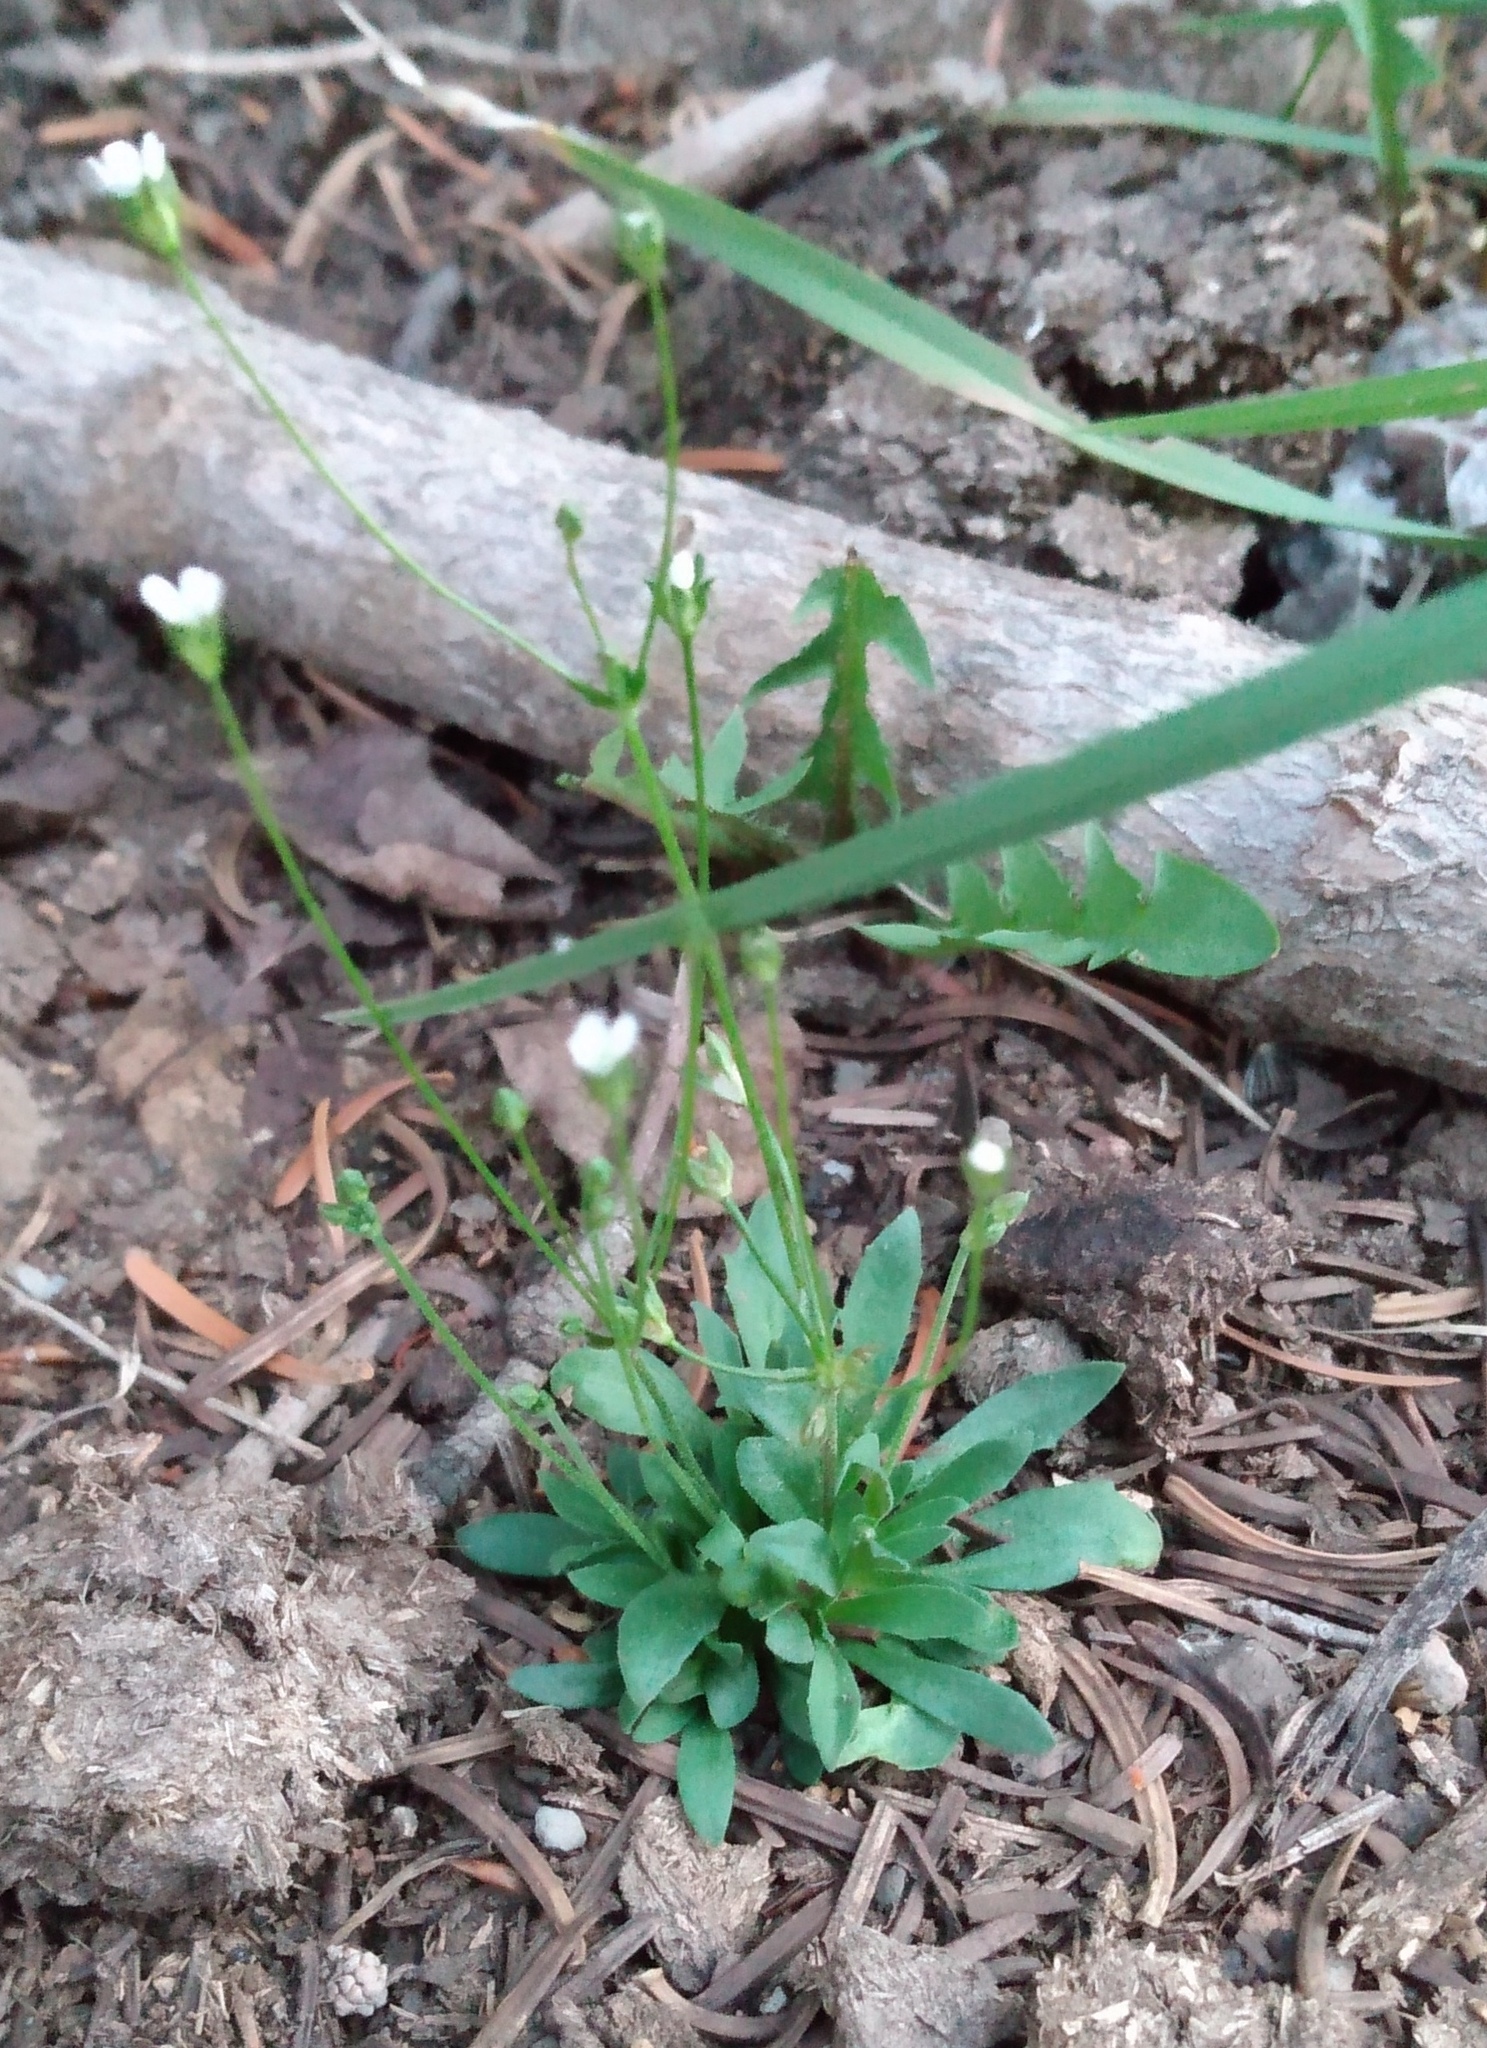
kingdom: Plantae
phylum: Tracheophyta
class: Magnoliopsida
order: Ericales
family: Primulaceae
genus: Androsace
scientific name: Androsace septentrionalis
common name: Hairy northern fairy-candelabra
